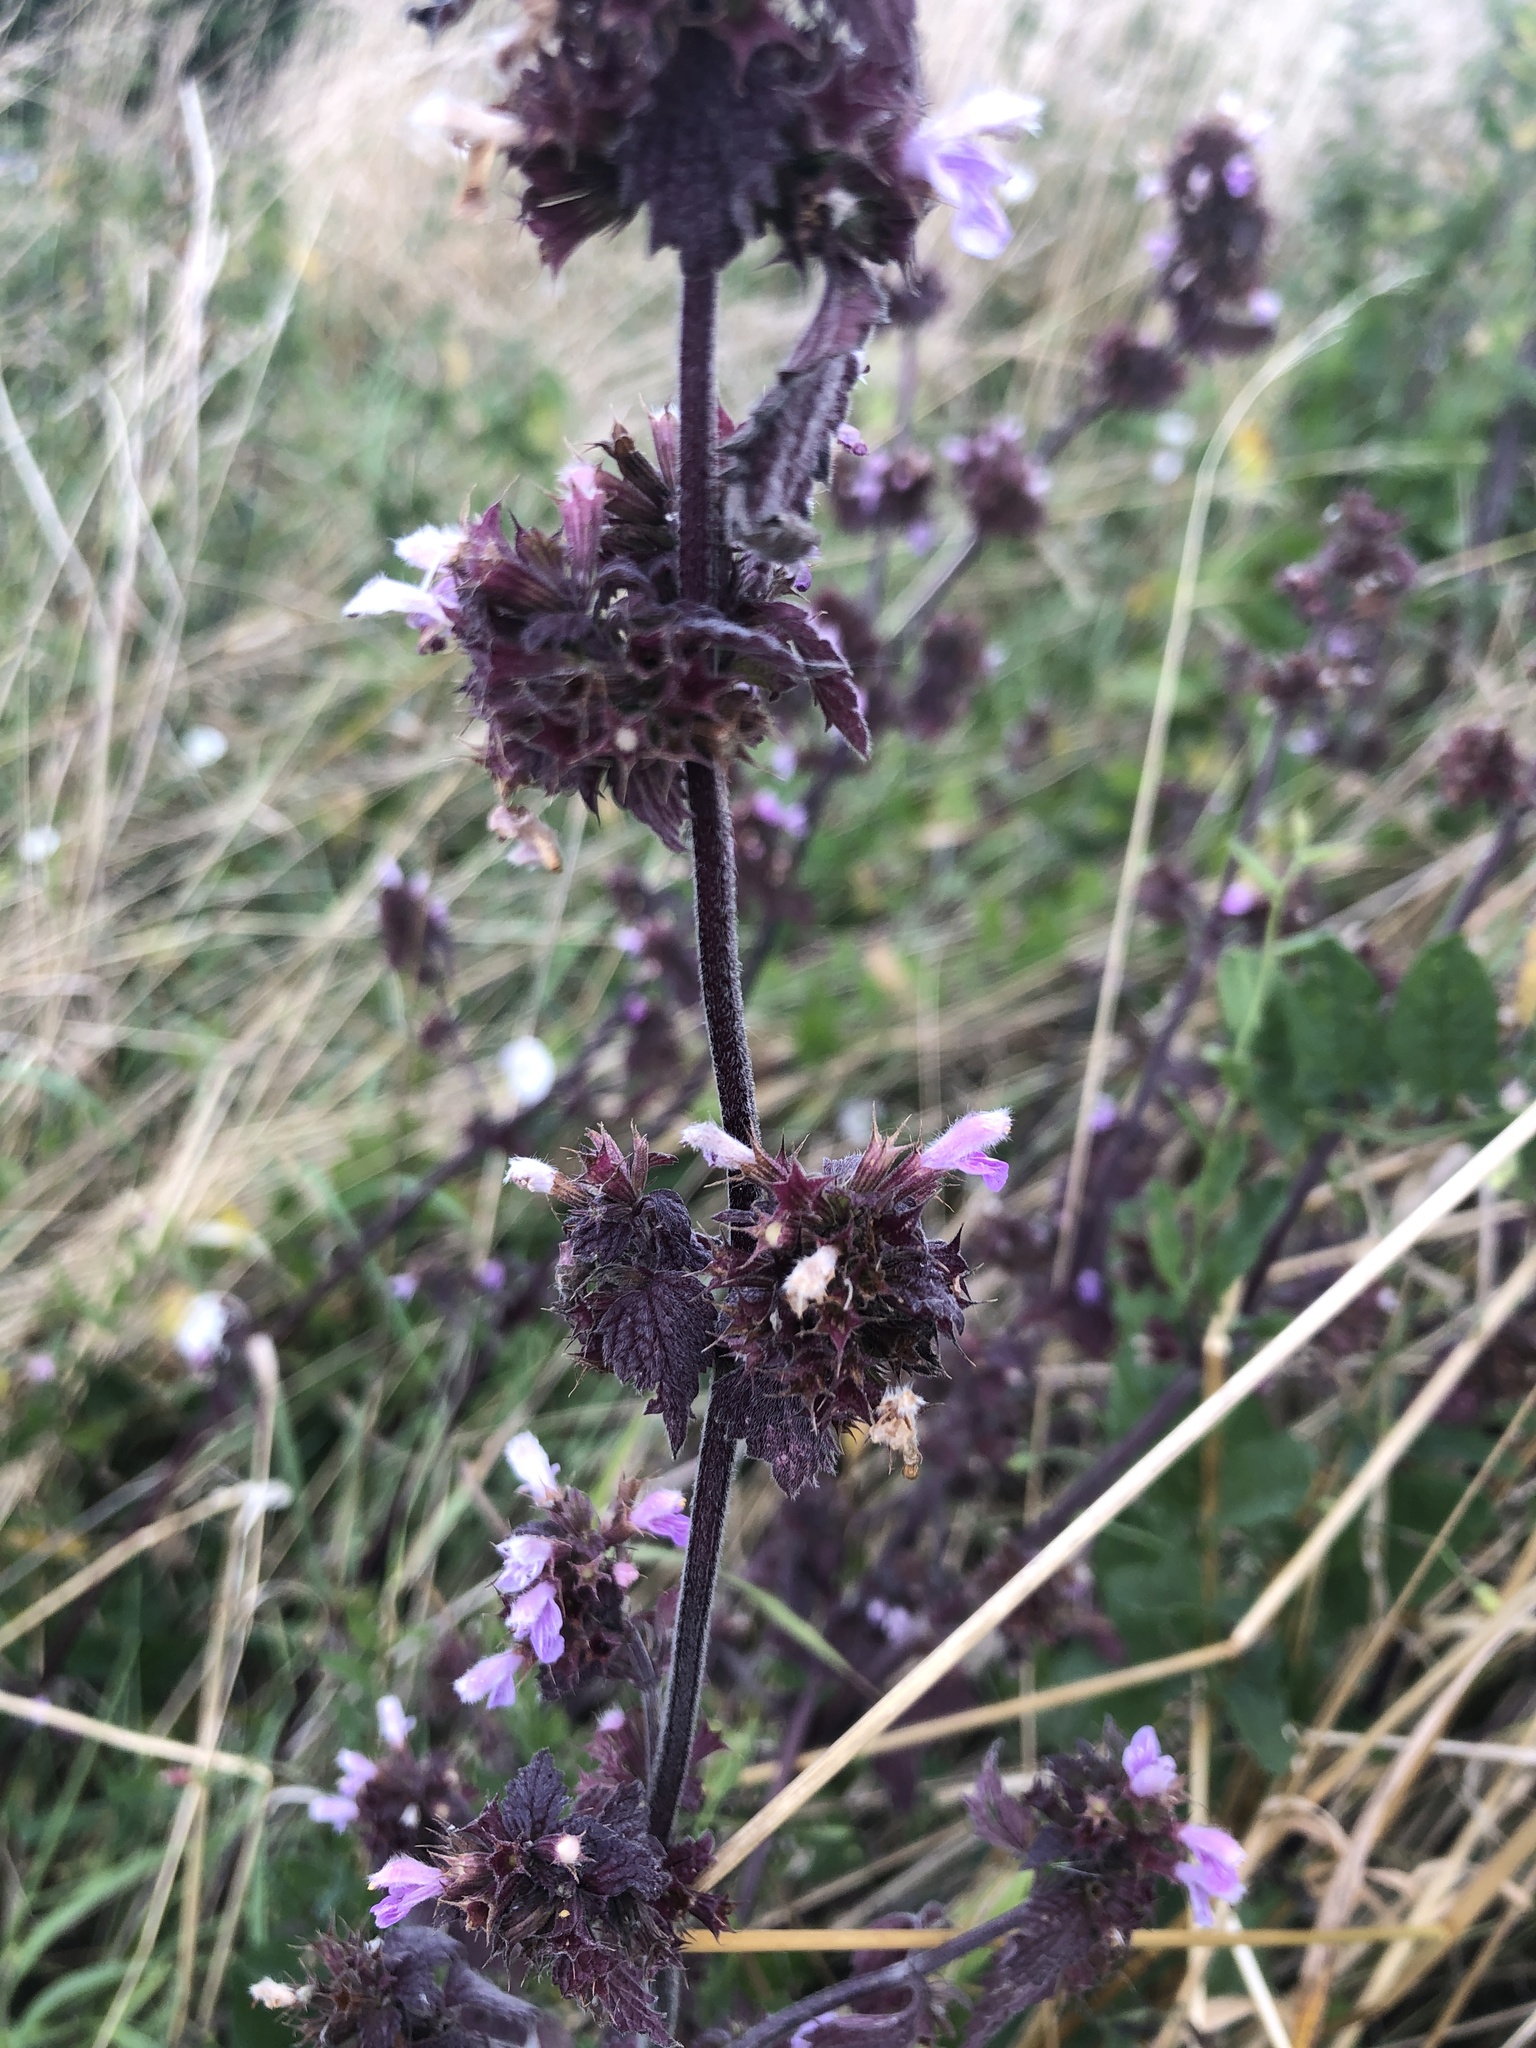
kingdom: Plantae
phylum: Tracheophyta
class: Magnoliopsida
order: Lamiales
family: Lamiaceae
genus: Ballota
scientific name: Ballota nigra
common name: Black horehound
